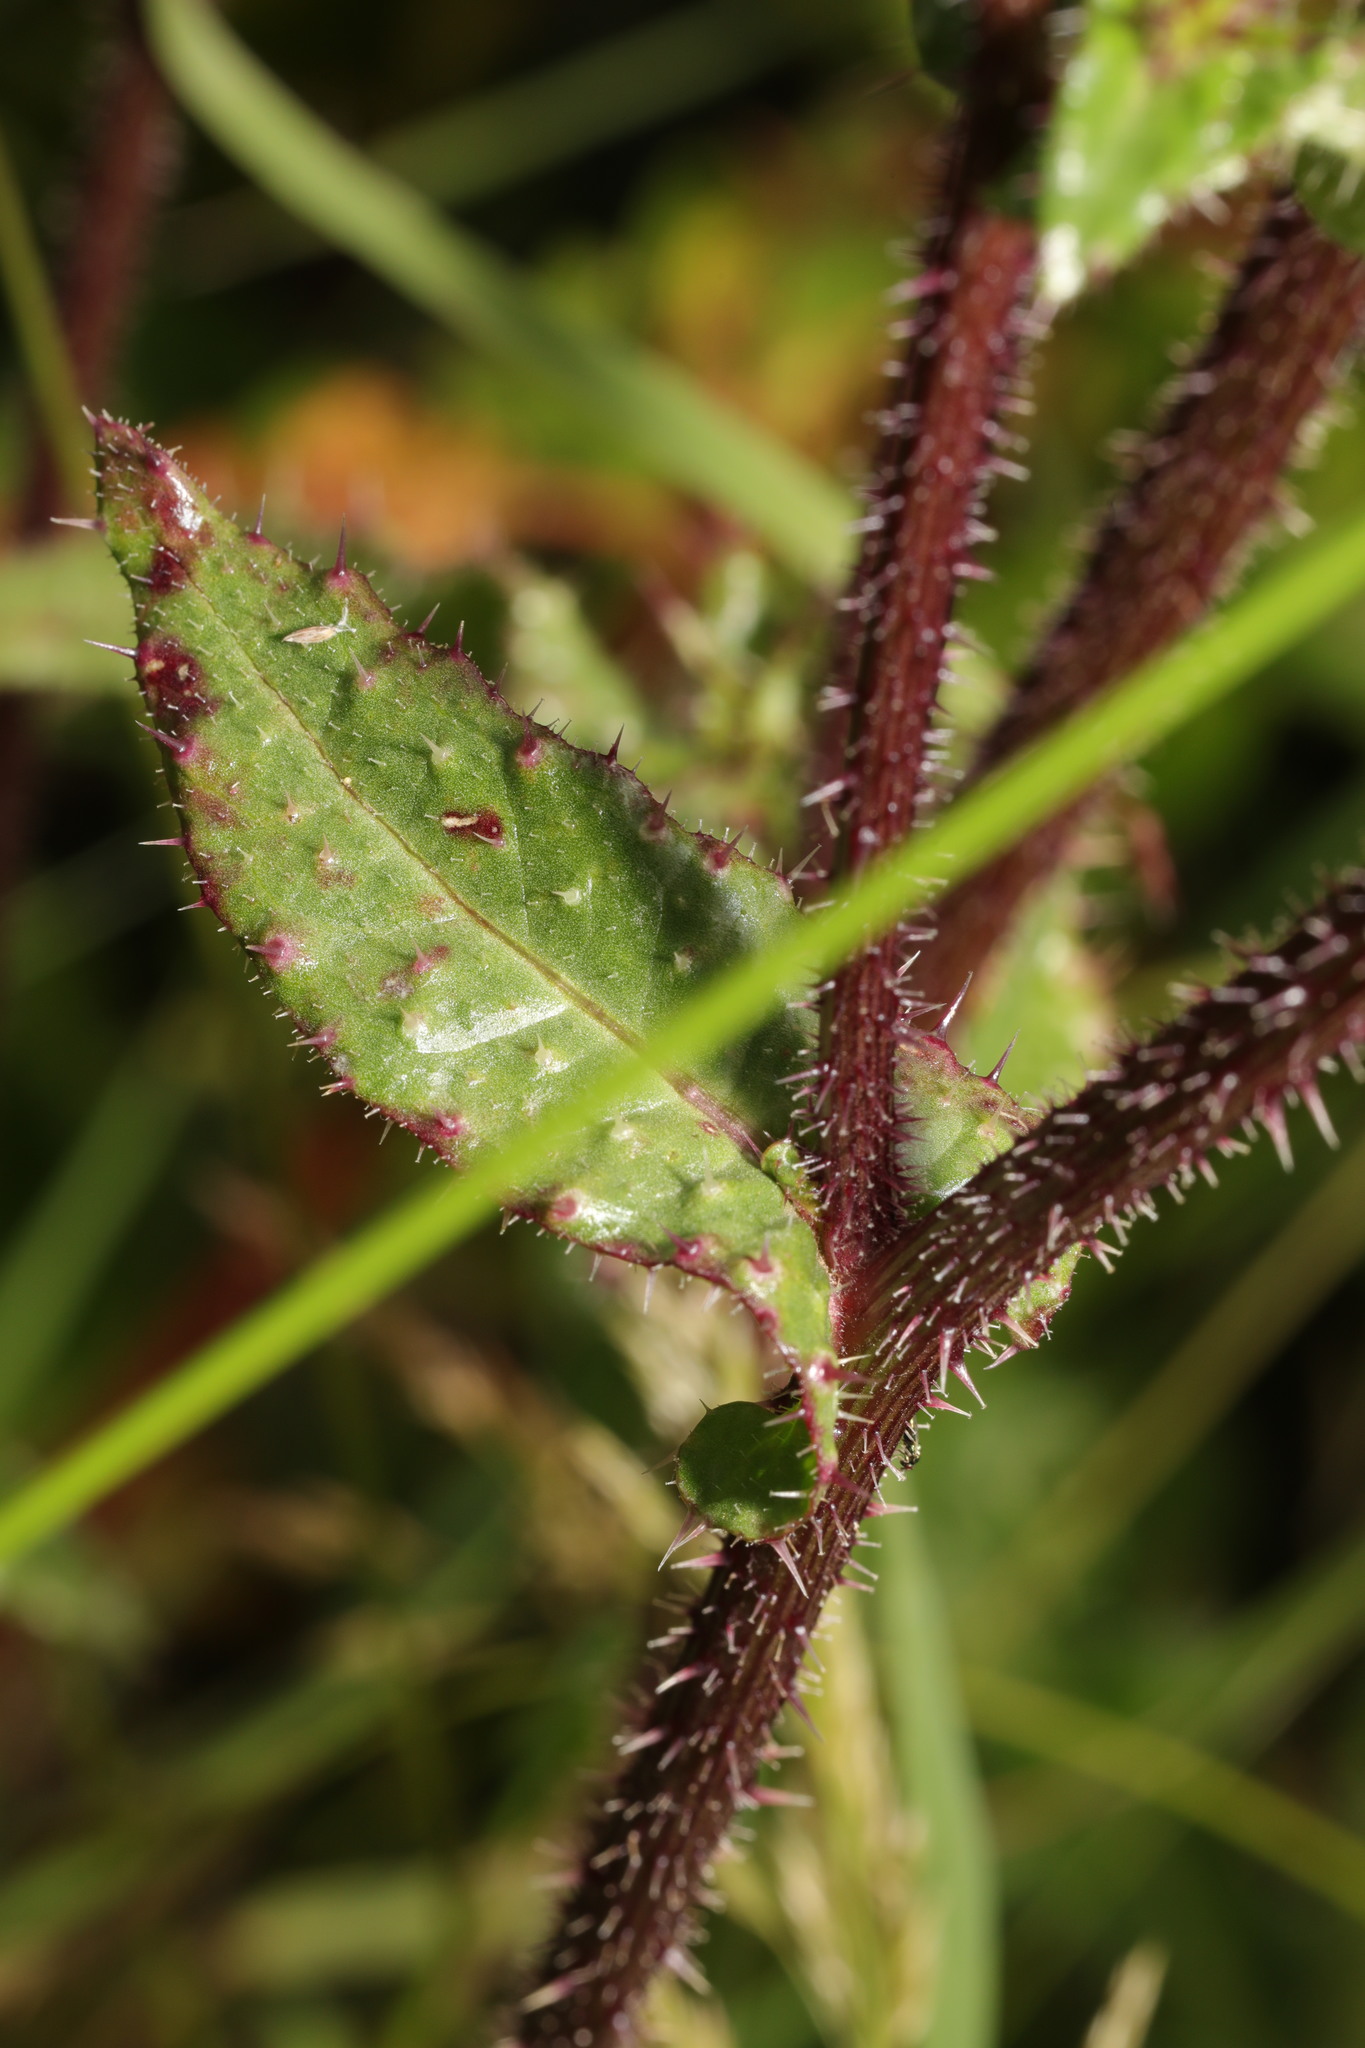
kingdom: Plantae
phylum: Tracheophyta
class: Magnoliopsida
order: Asterales
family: Asteraceae
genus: Helminthotheca
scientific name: Helminthotheca echioides
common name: Ox-tongue
